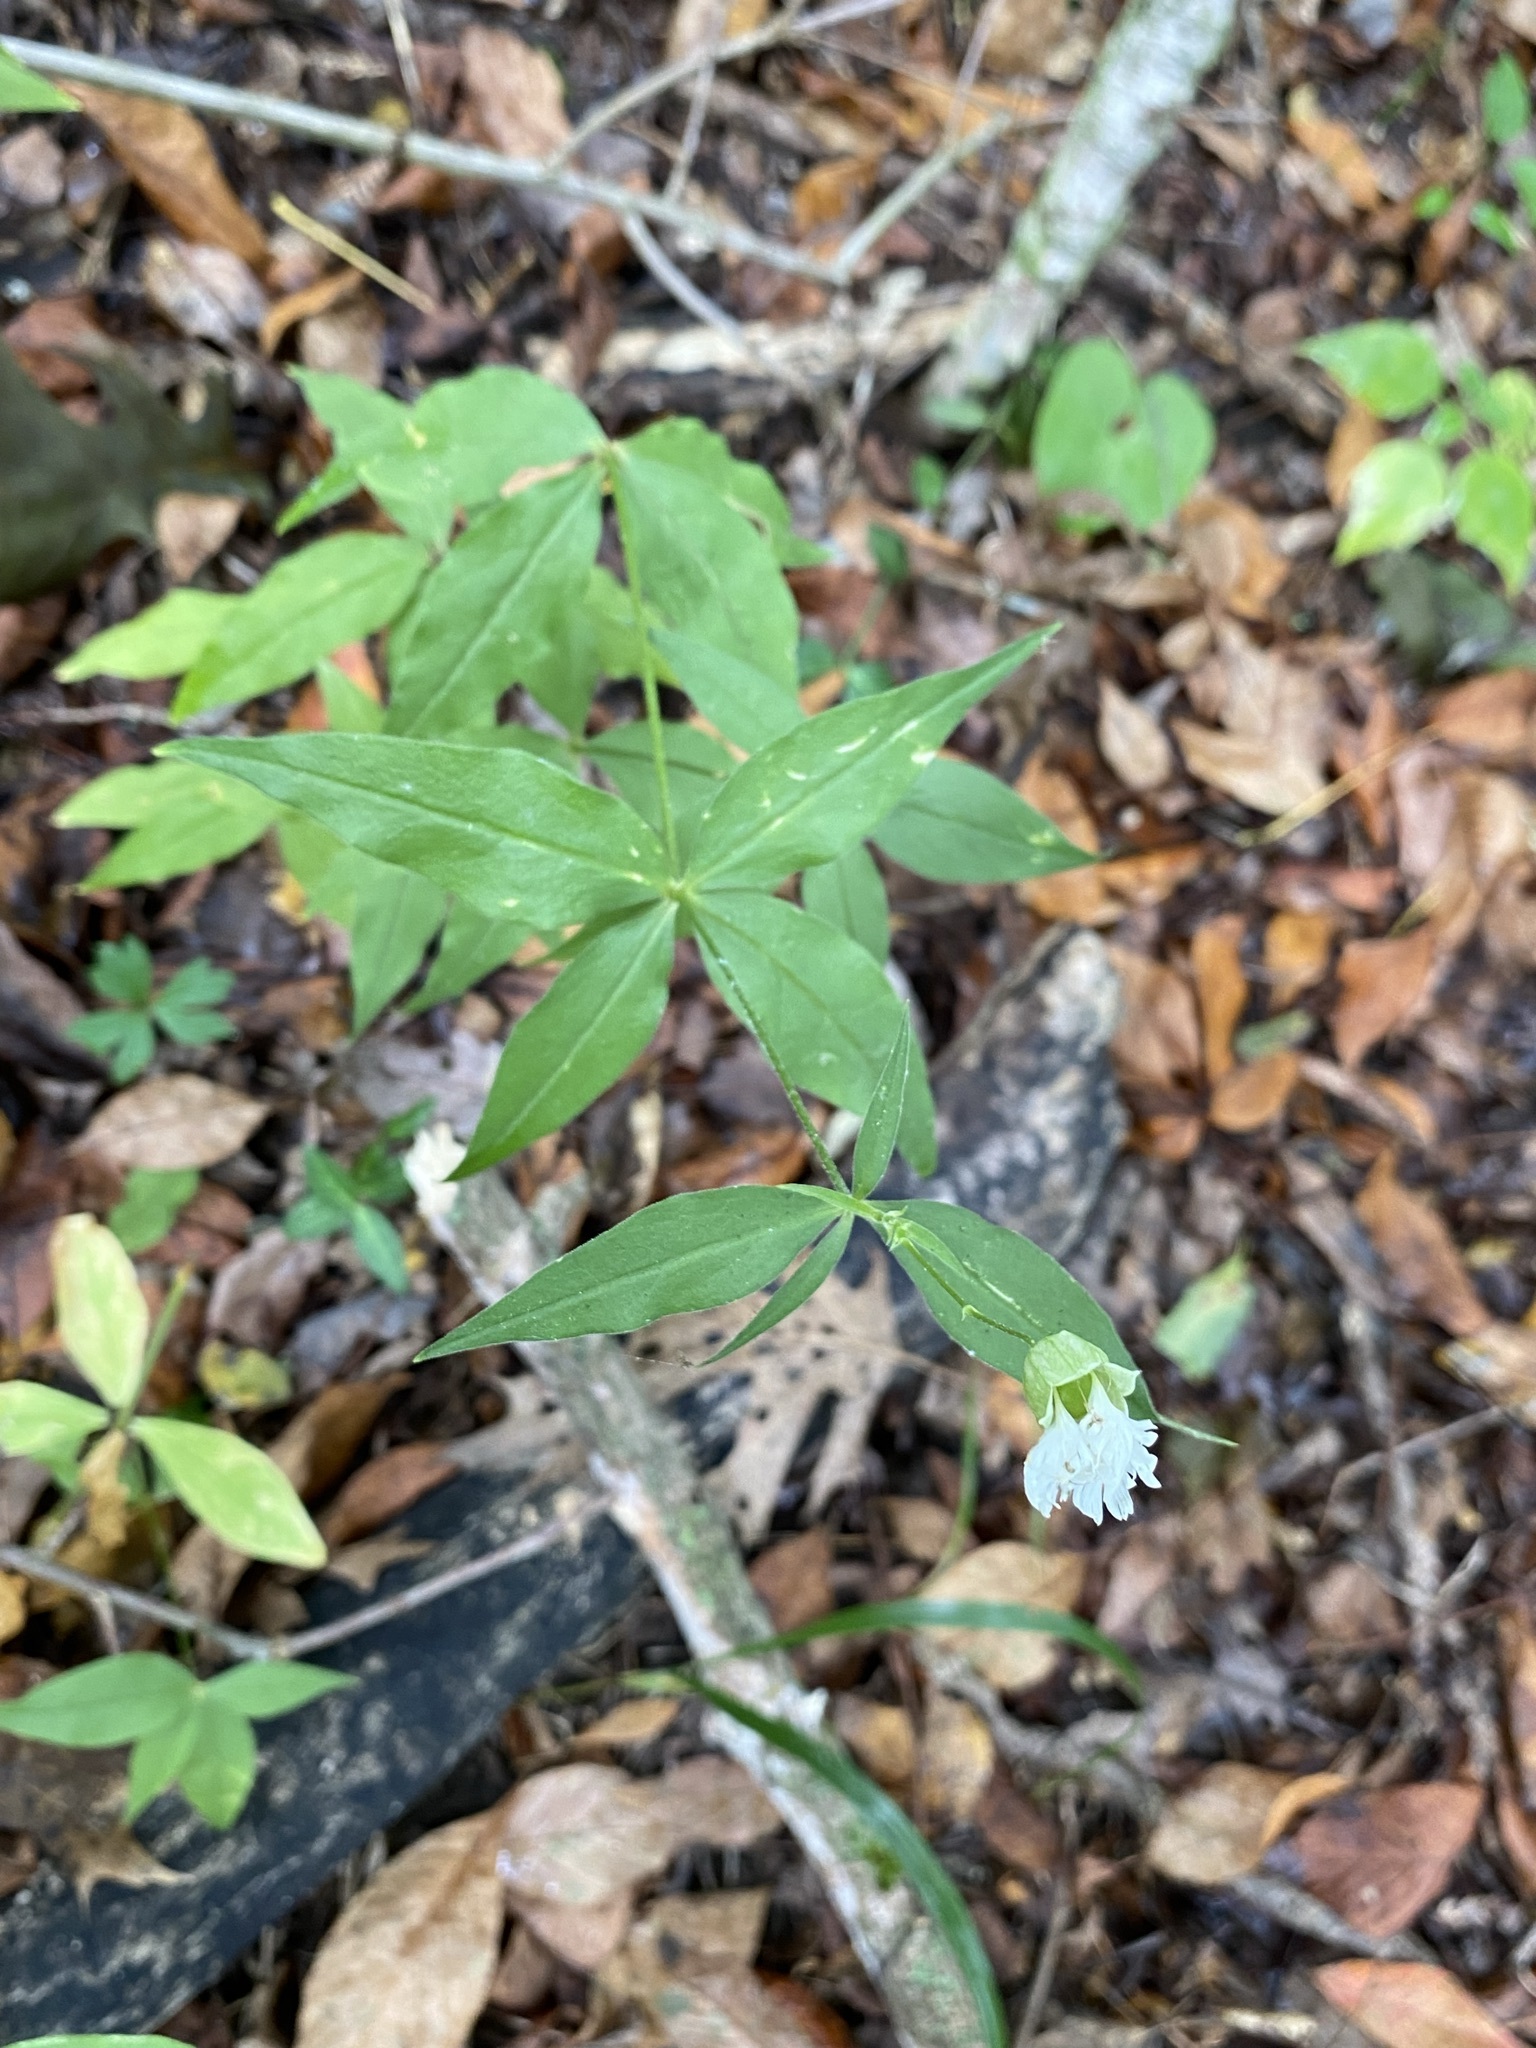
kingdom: Plantae
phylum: Tracheophyta
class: Magnoliopsida
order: Caryophyllales
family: Caryophyllaceae
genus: Silene
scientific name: Silene stellata
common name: Starry campion
